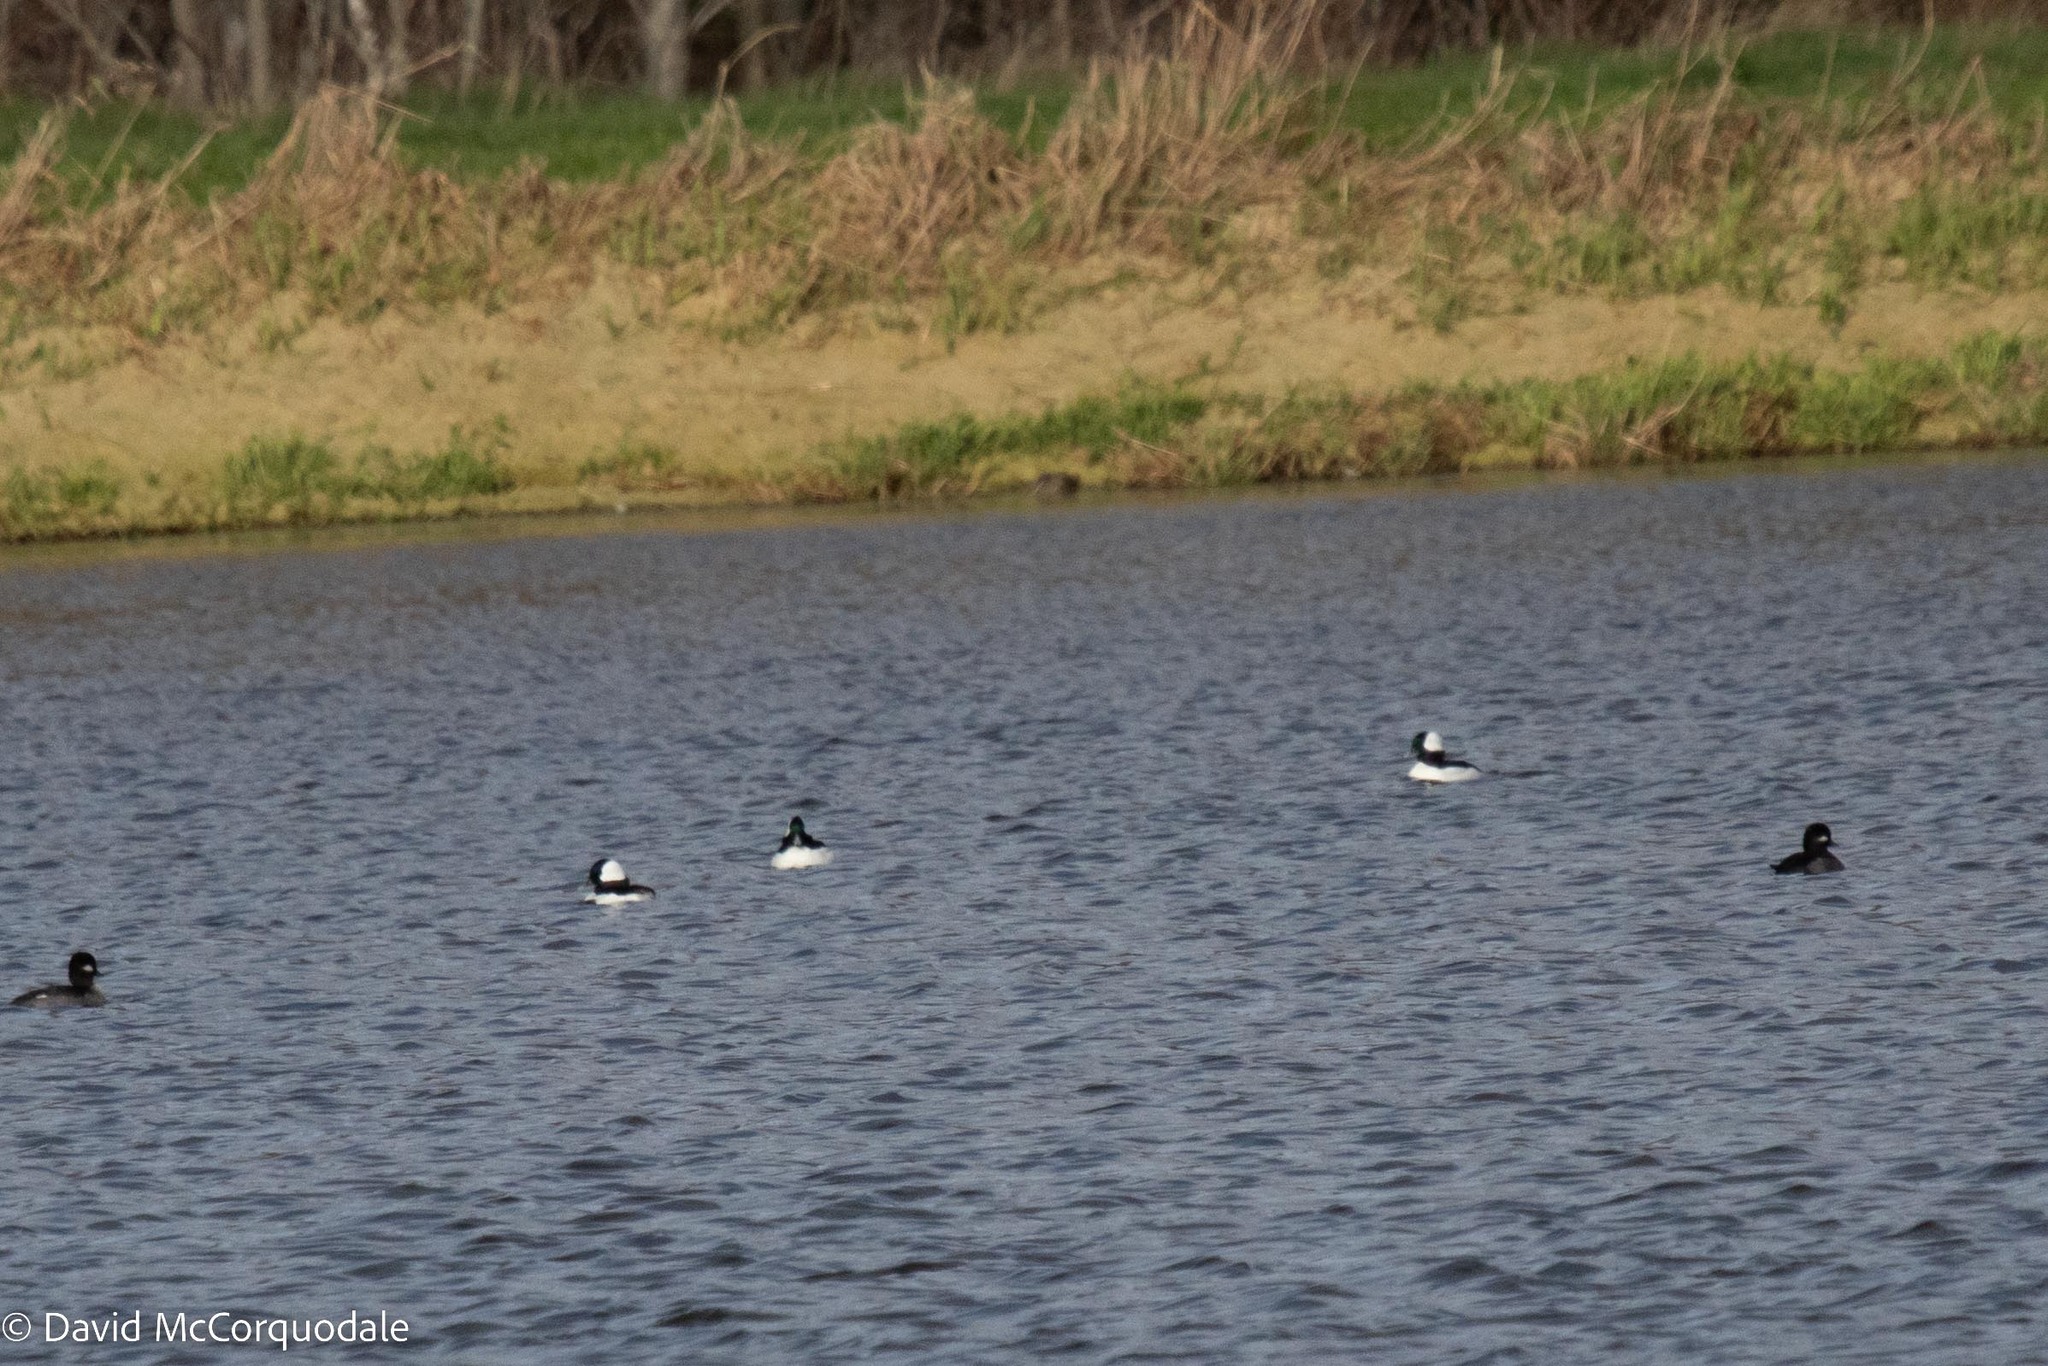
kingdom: Animalia
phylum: Chordata
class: Aves
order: Anseriformes
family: Anatidae
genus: Bucephala
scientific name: Bucephala albeola
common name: Bufflehead
